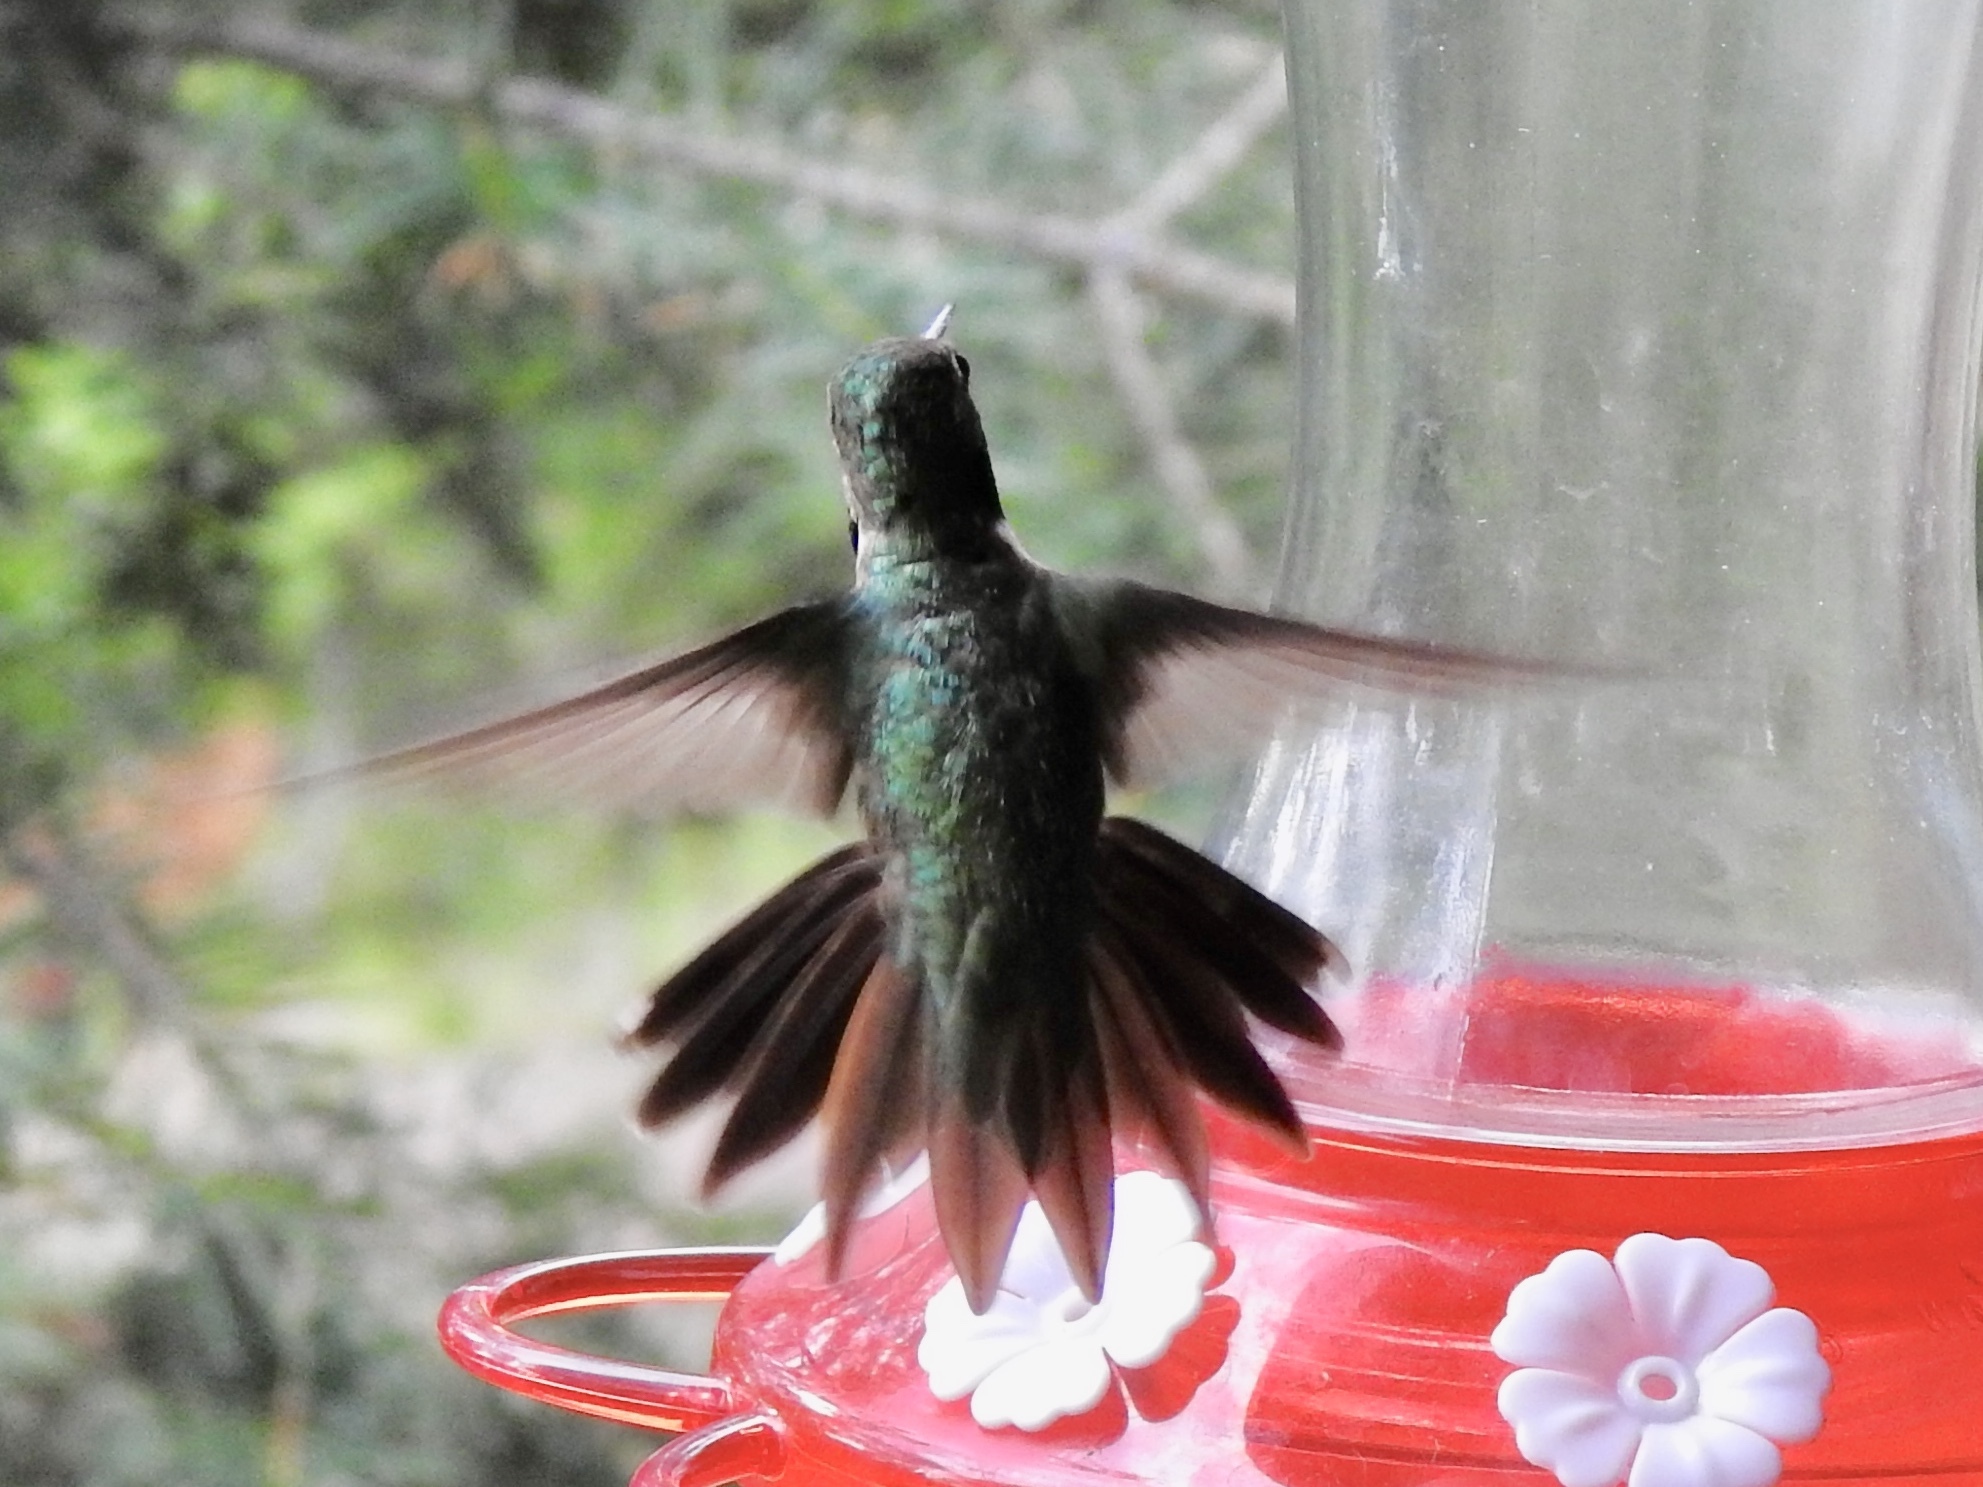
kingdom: Animalia
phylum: Chordata
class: Aves
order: Apodiformes
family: Trochilidae
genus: Selasphorus
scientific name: Selasphorus platycercus
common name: Broad-tailed hummingbird
